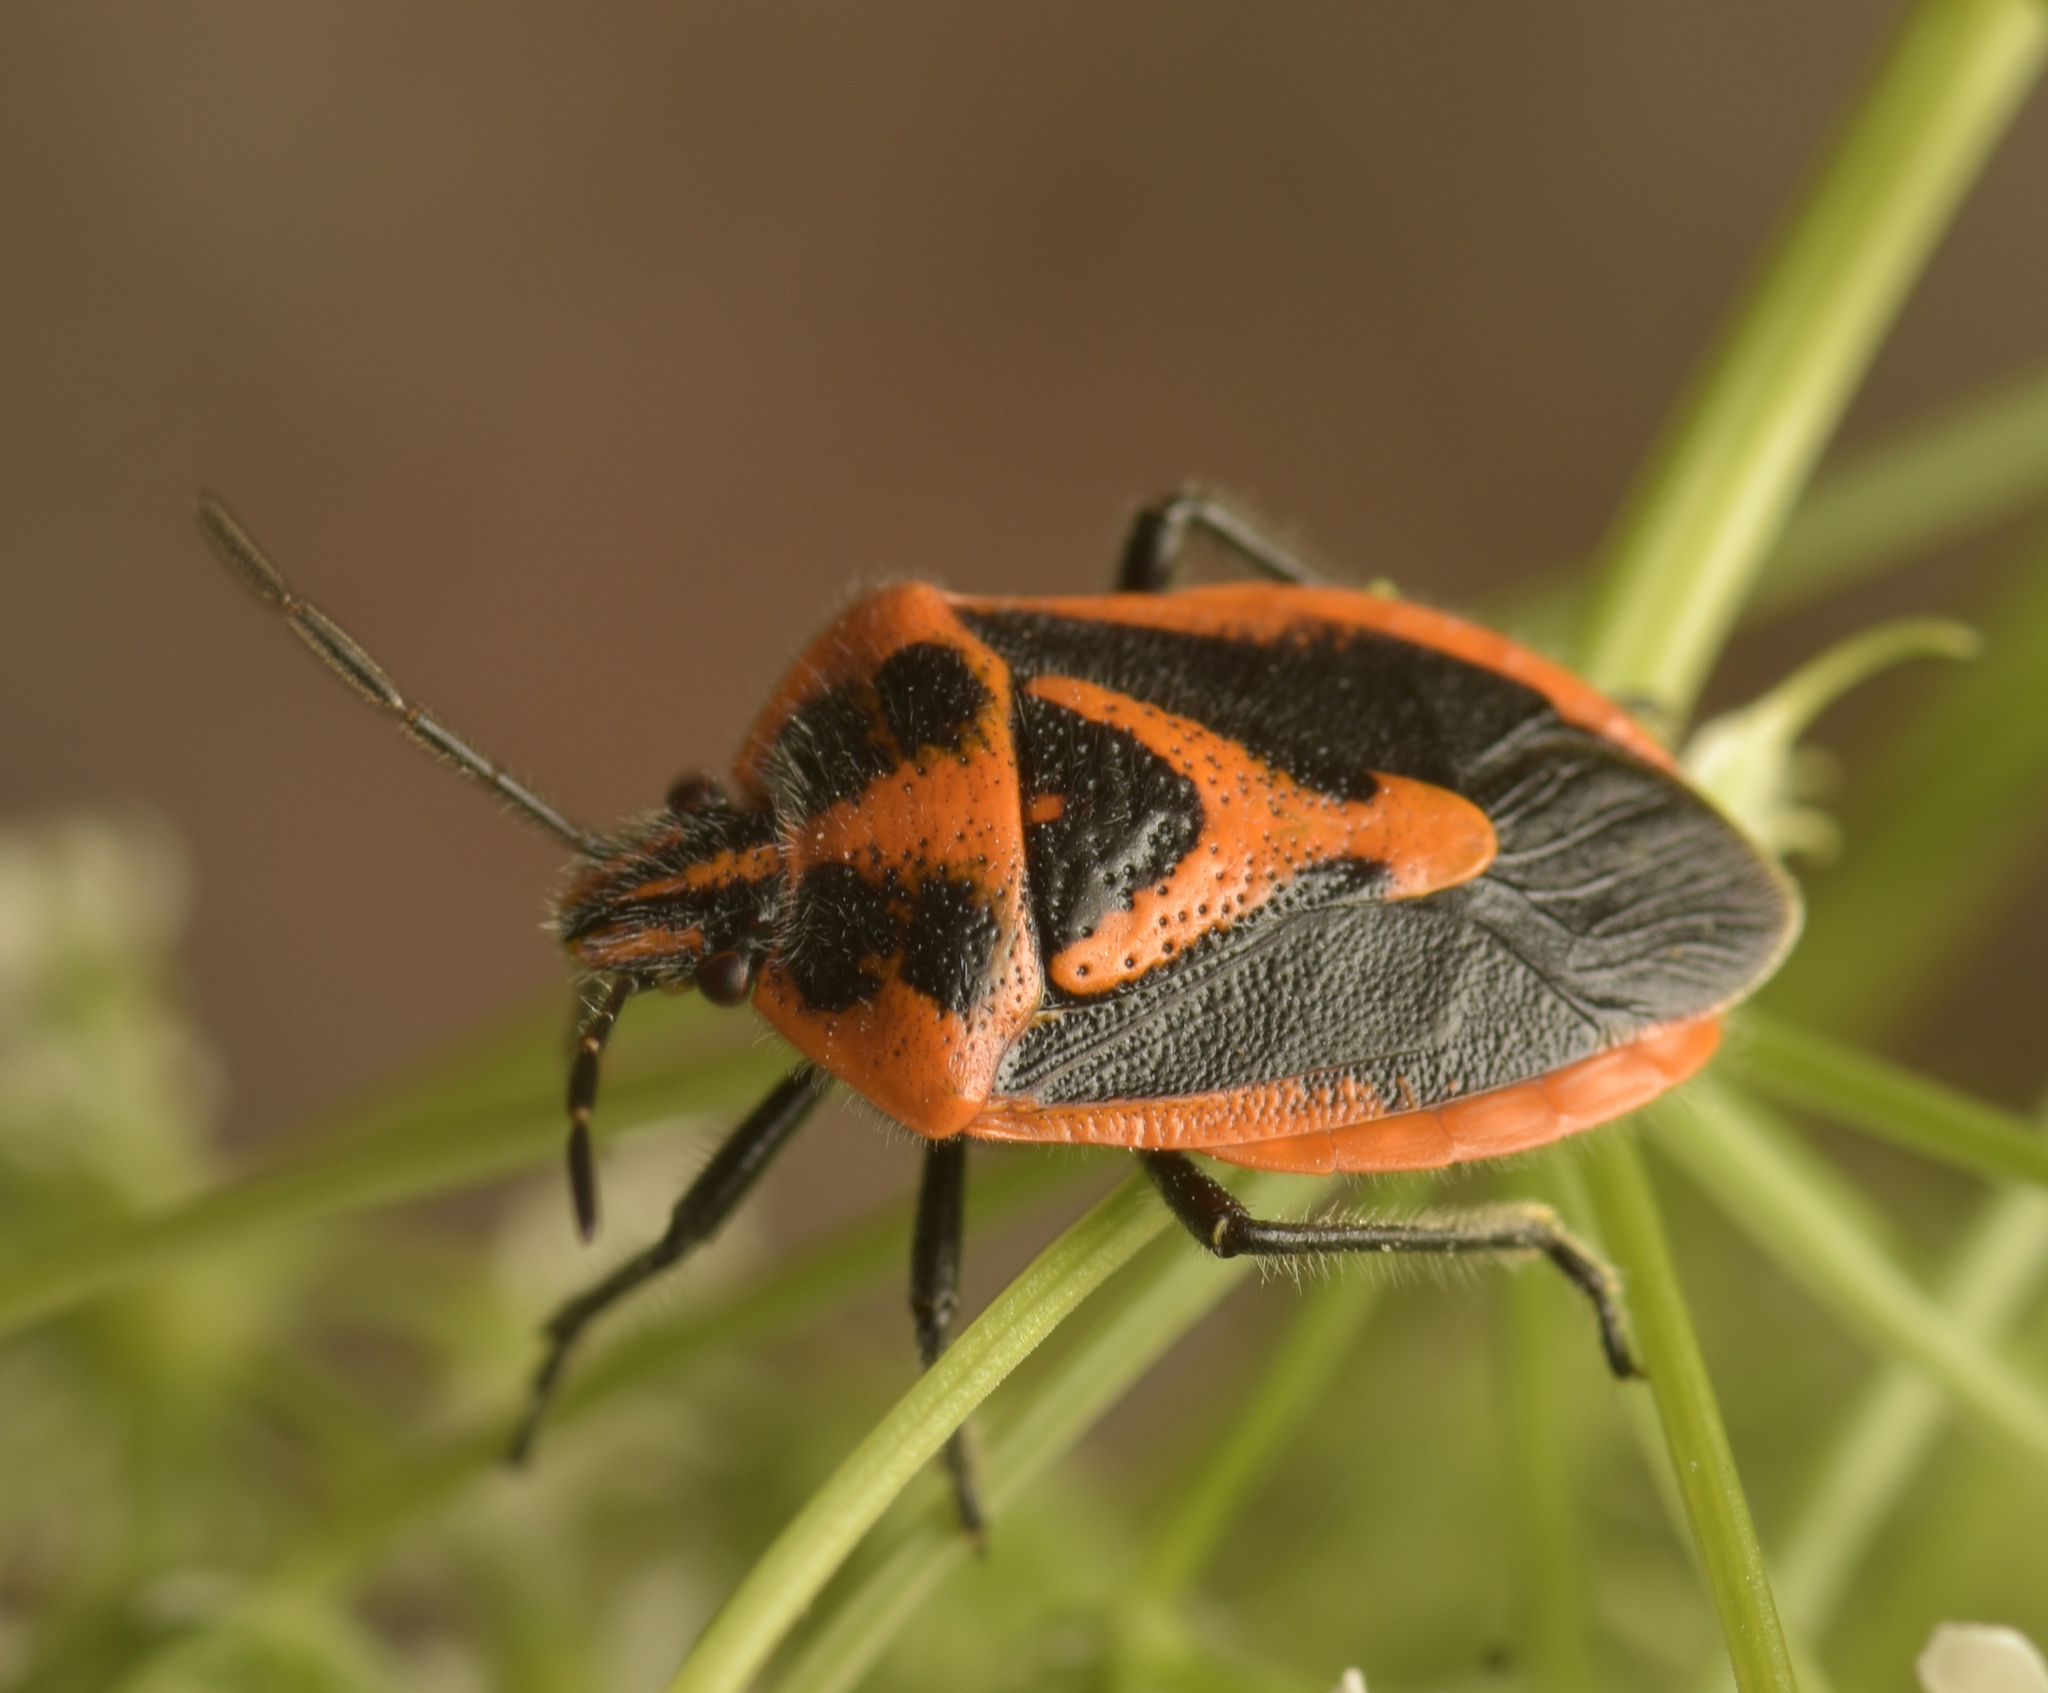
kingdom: Animalia
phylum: Arthropoda
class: Insecta
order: Hemiptera
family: Pentatomidae
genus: Agonoscelis
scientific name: Agonoscelis rutila
